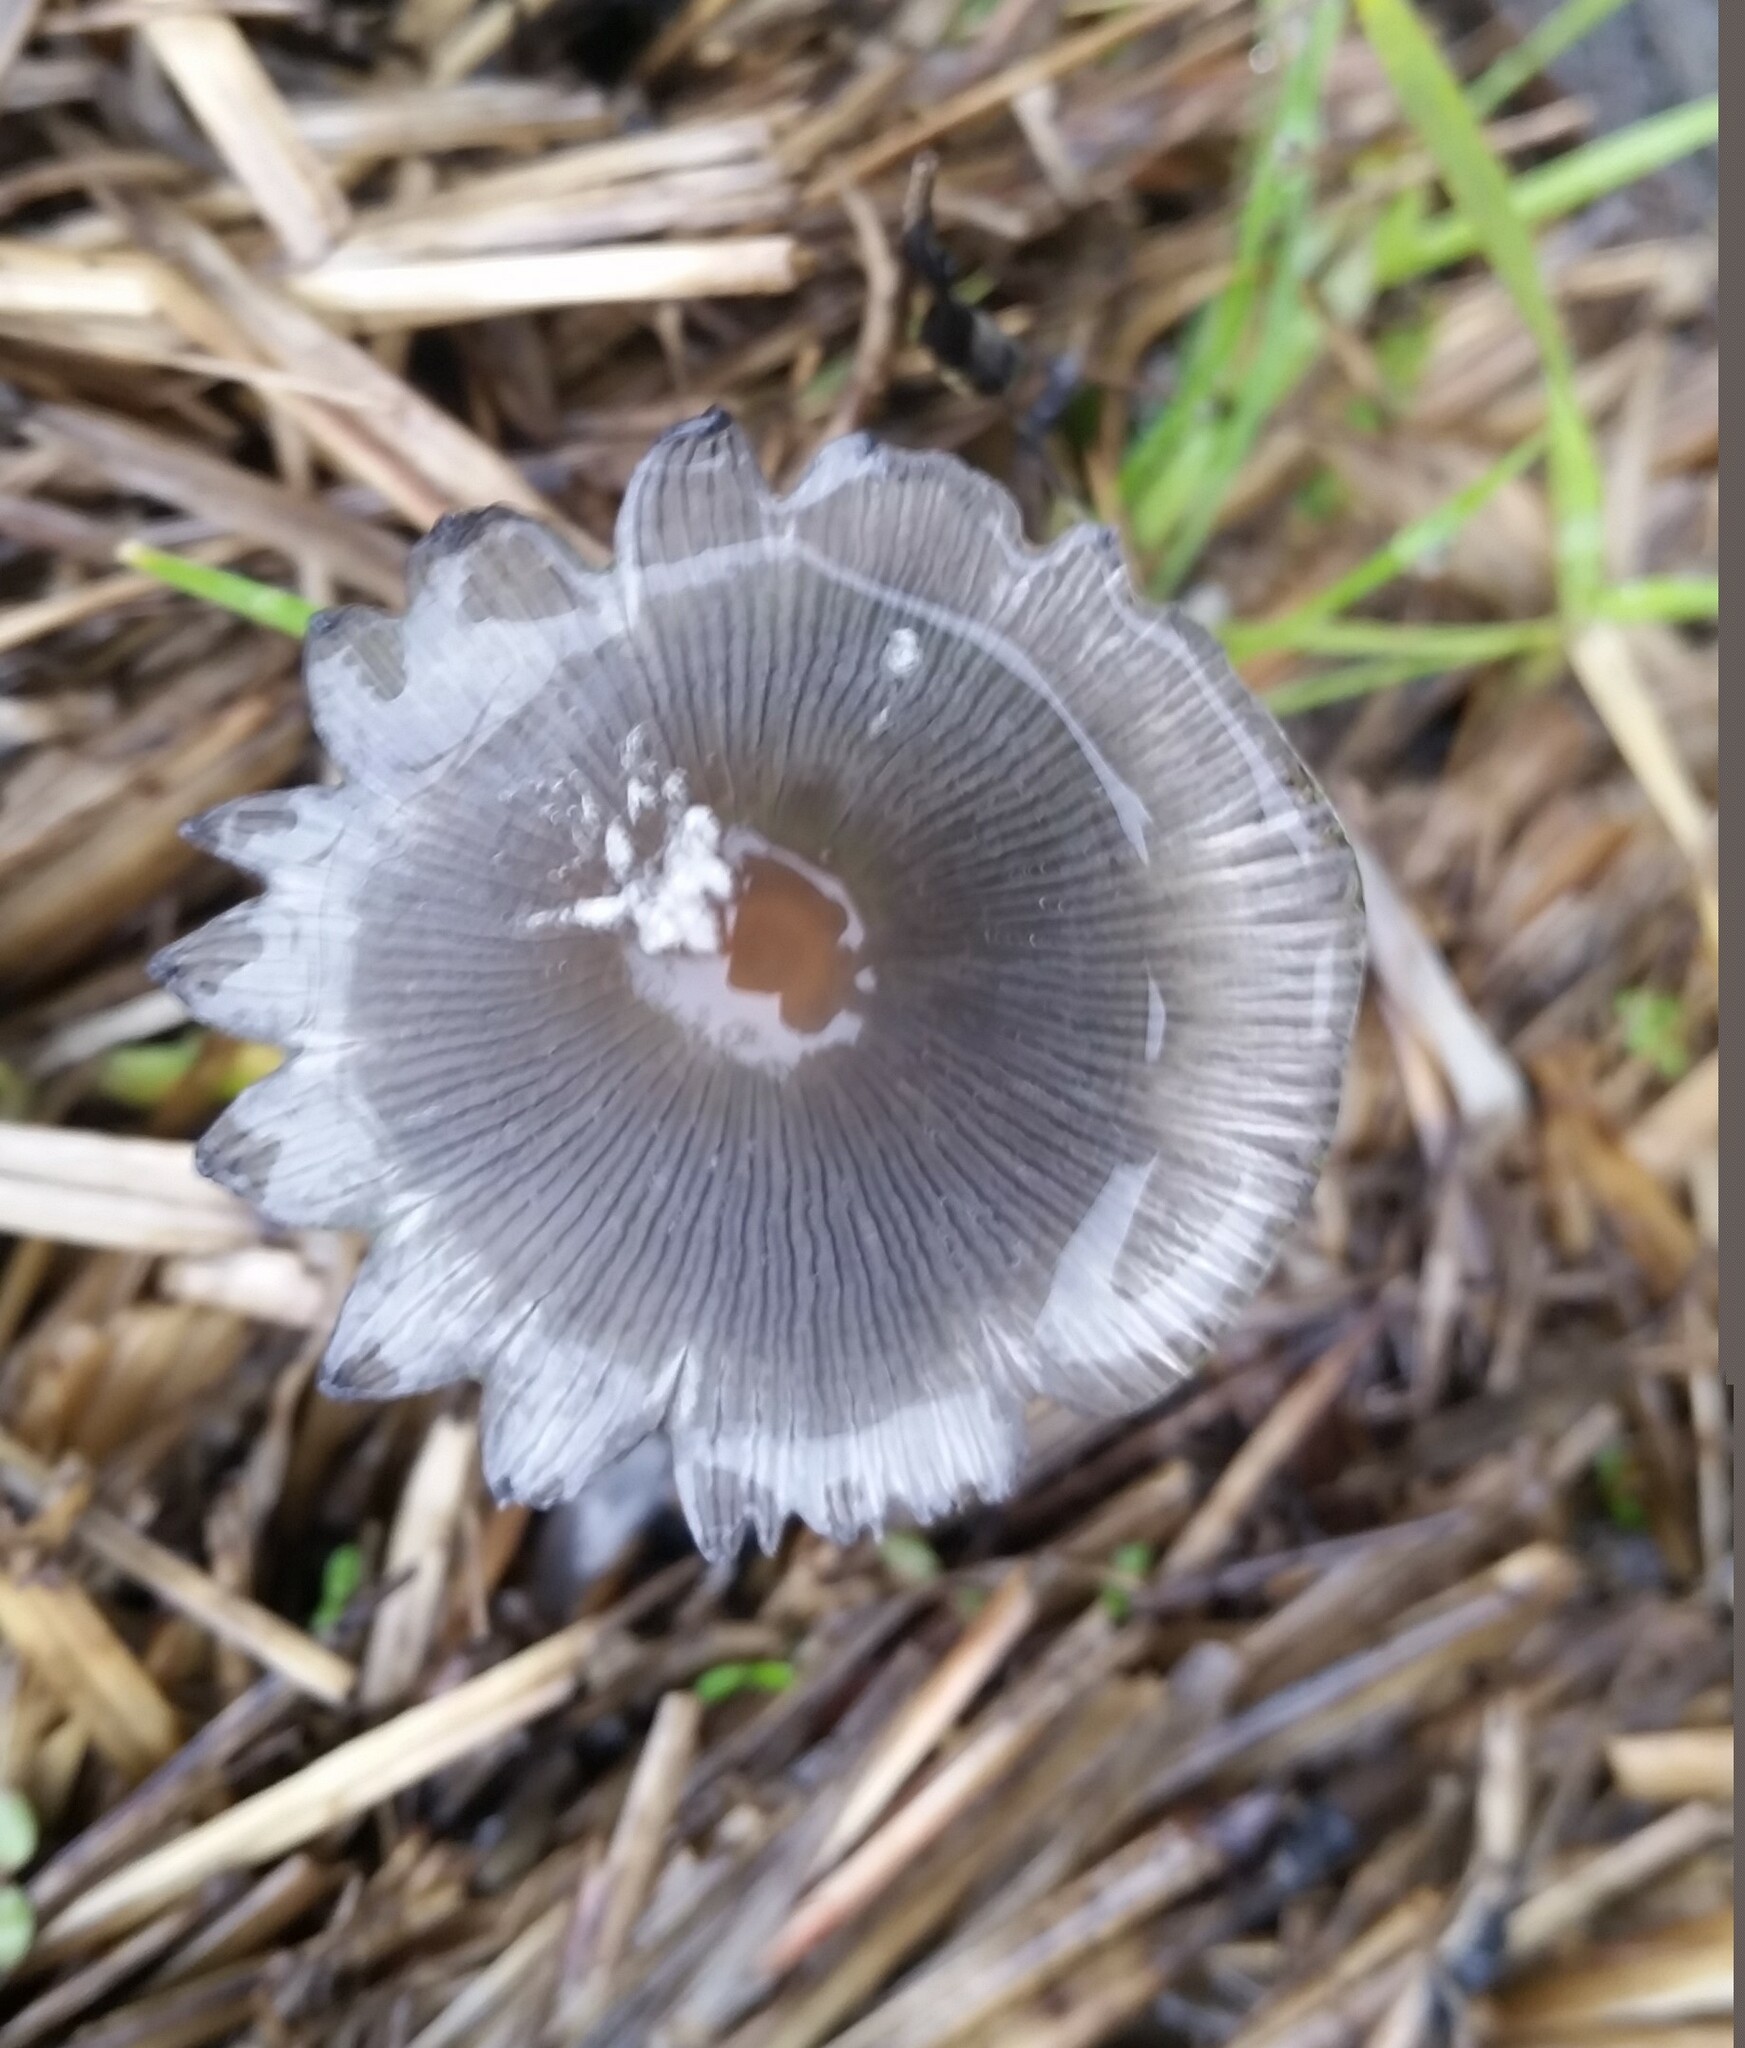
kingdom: Fungi
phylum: Basidiomycota
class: Agaricomycetes
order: Agaricales
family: Psathyrellaceae
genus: Coprinopsis
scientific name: Coprinopsis lagopus
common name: Hare'sfoot inkcap
